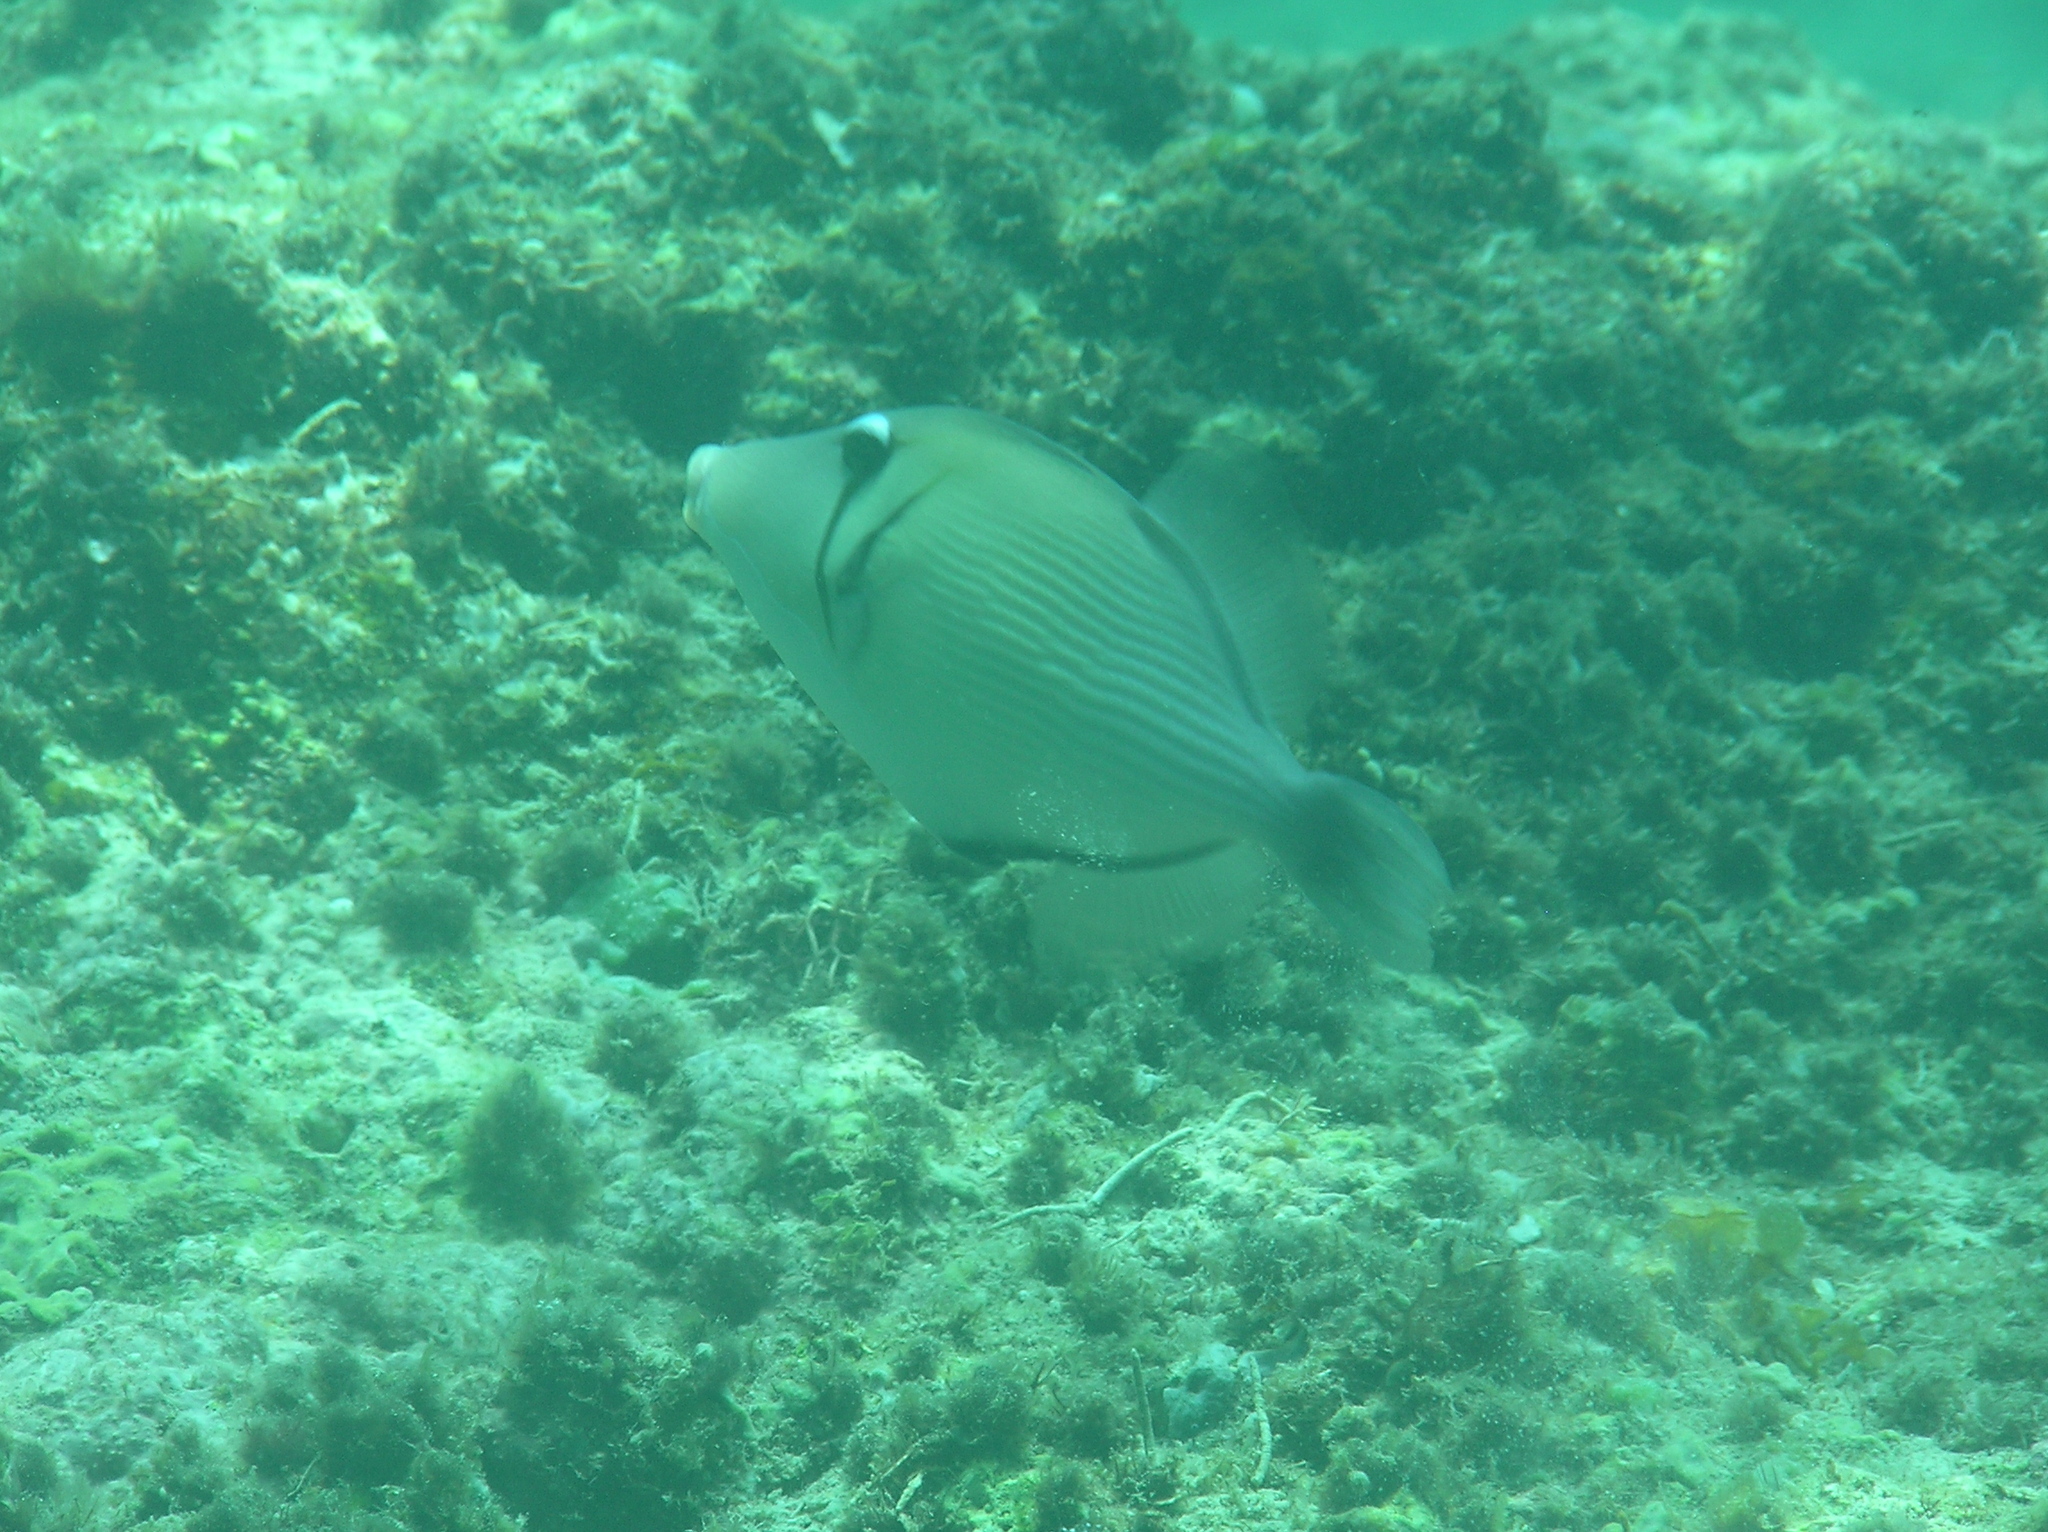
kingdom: Animalia
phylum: Chordata
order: Tetraodontiformes
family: Balistidae
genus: Sufflamen
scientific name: Sufflamen bursa
